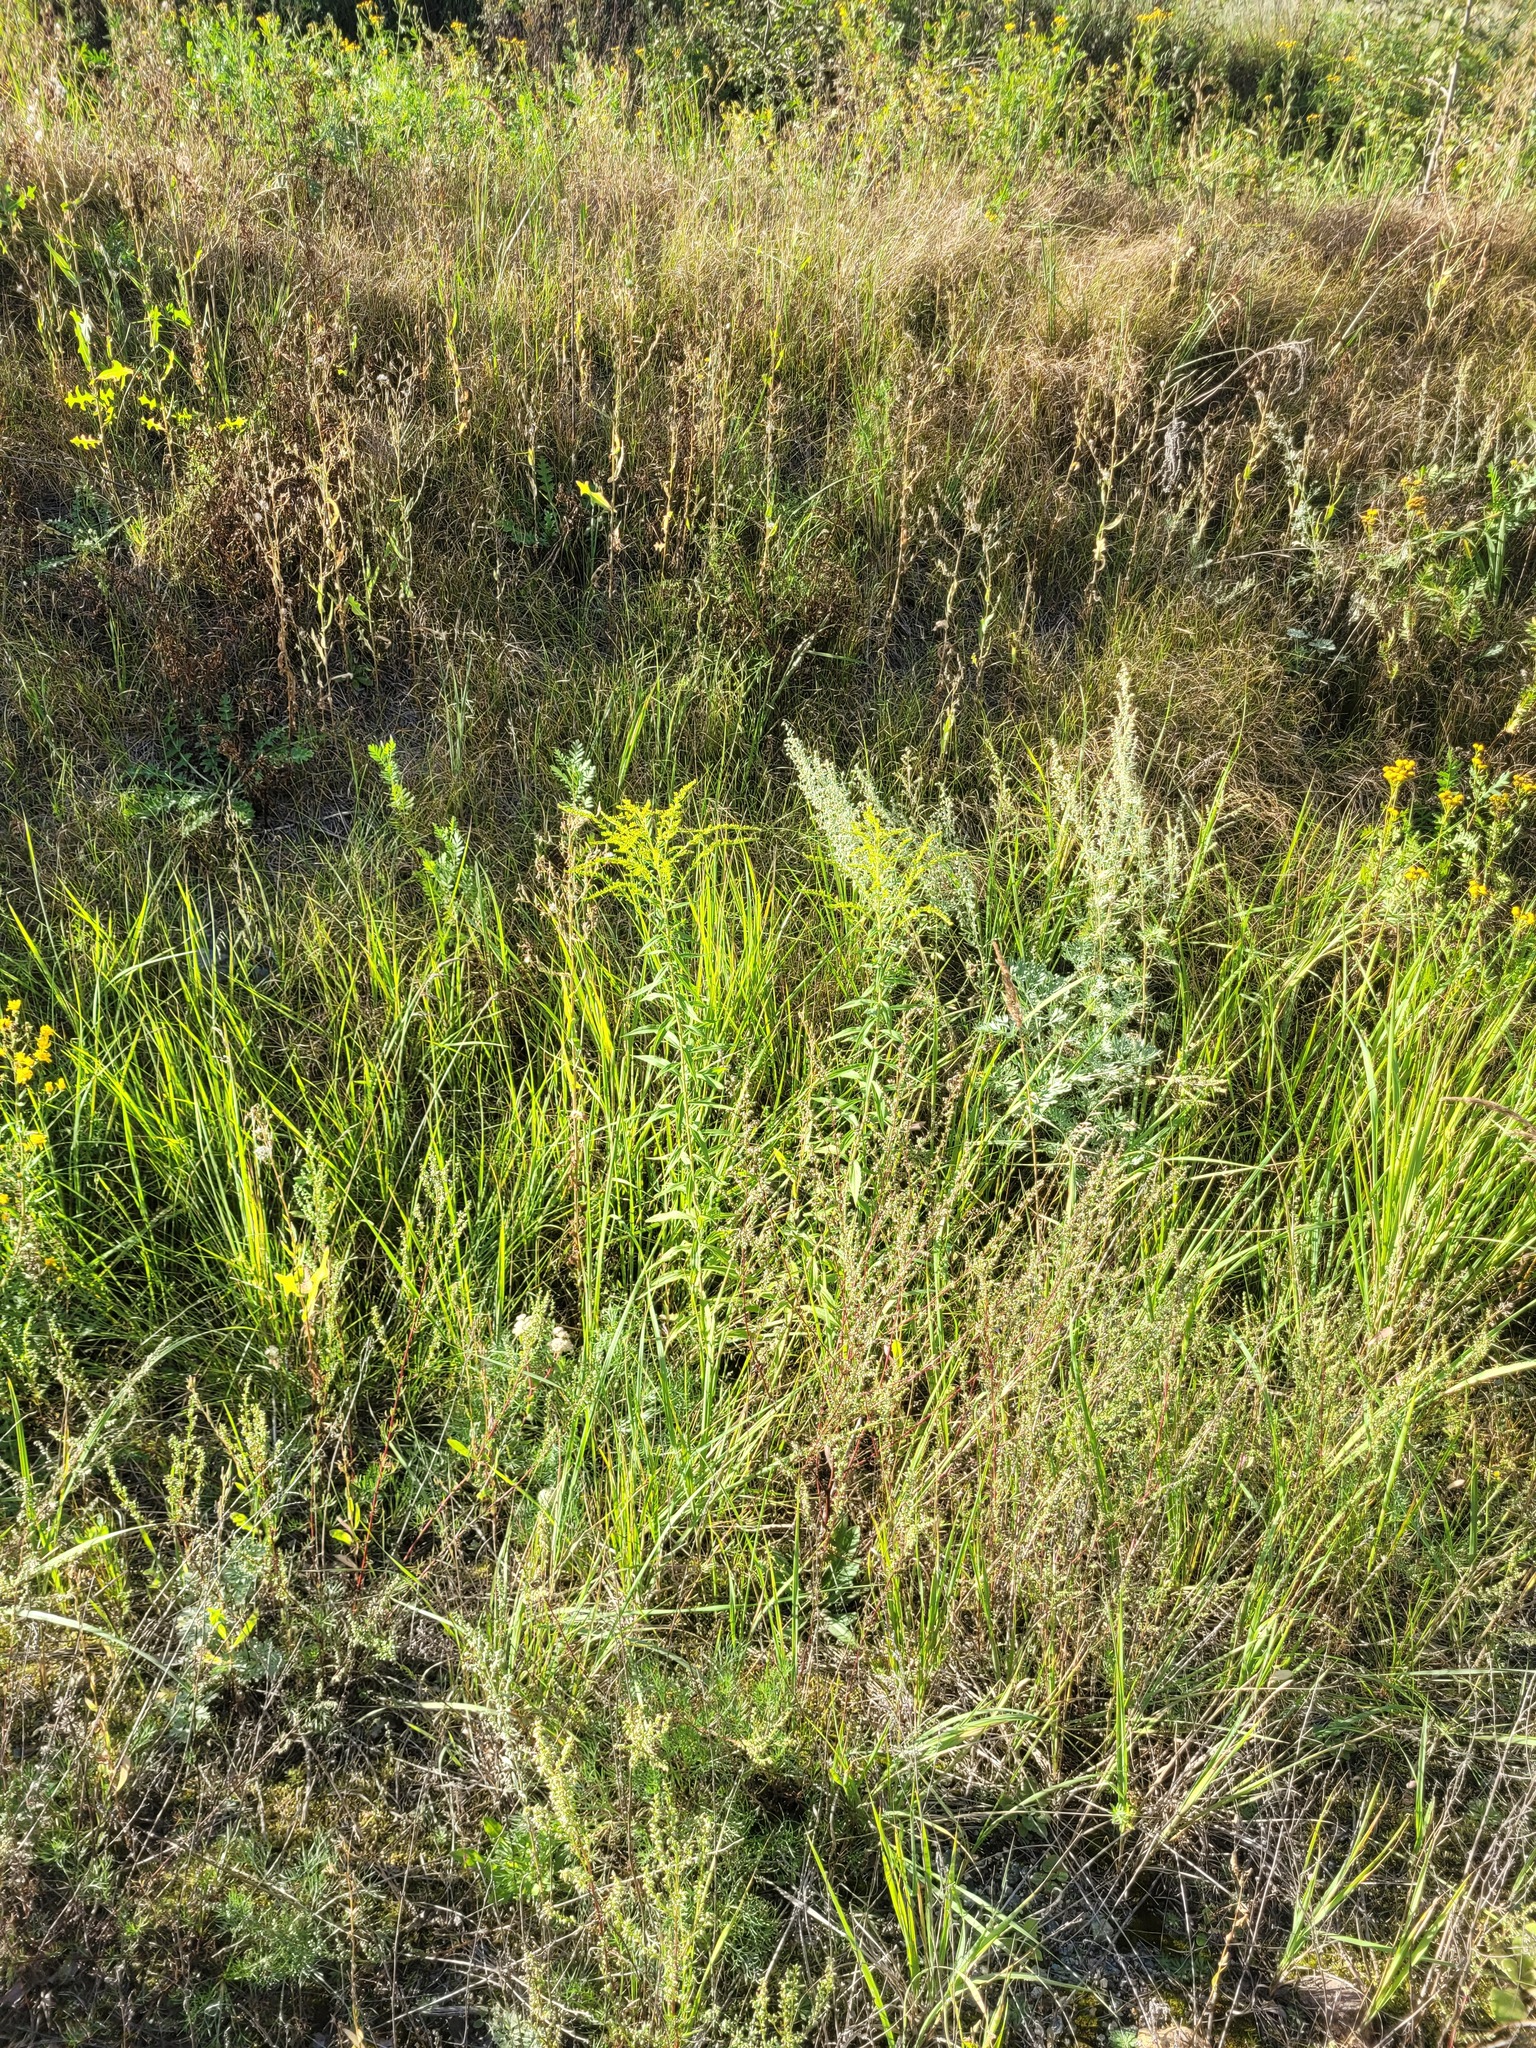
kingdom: Plantae
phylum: Tracheophyta
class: Magnoliopsida
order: Asterales
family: Asteraceae
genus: Solidago
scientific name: Solidago canadensis
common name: Canada goldenrod
